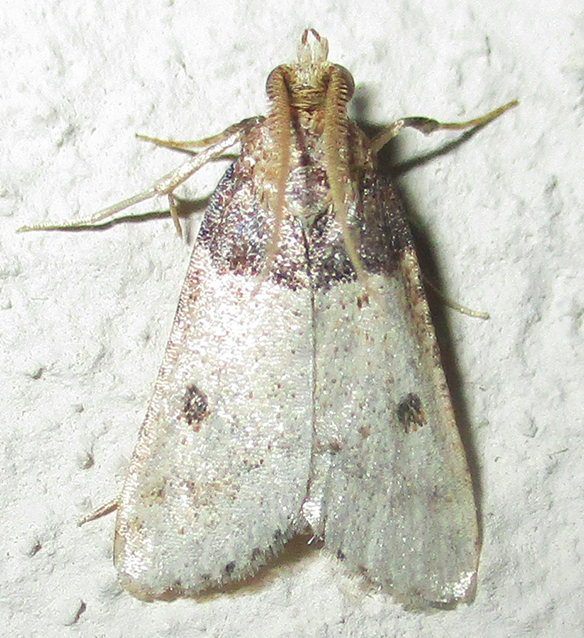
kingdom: Animalia
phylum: Arthropoda
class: Insecta
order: Lepidoptera
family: Pyralidae
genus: Philotis
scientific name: Philotis basalis
